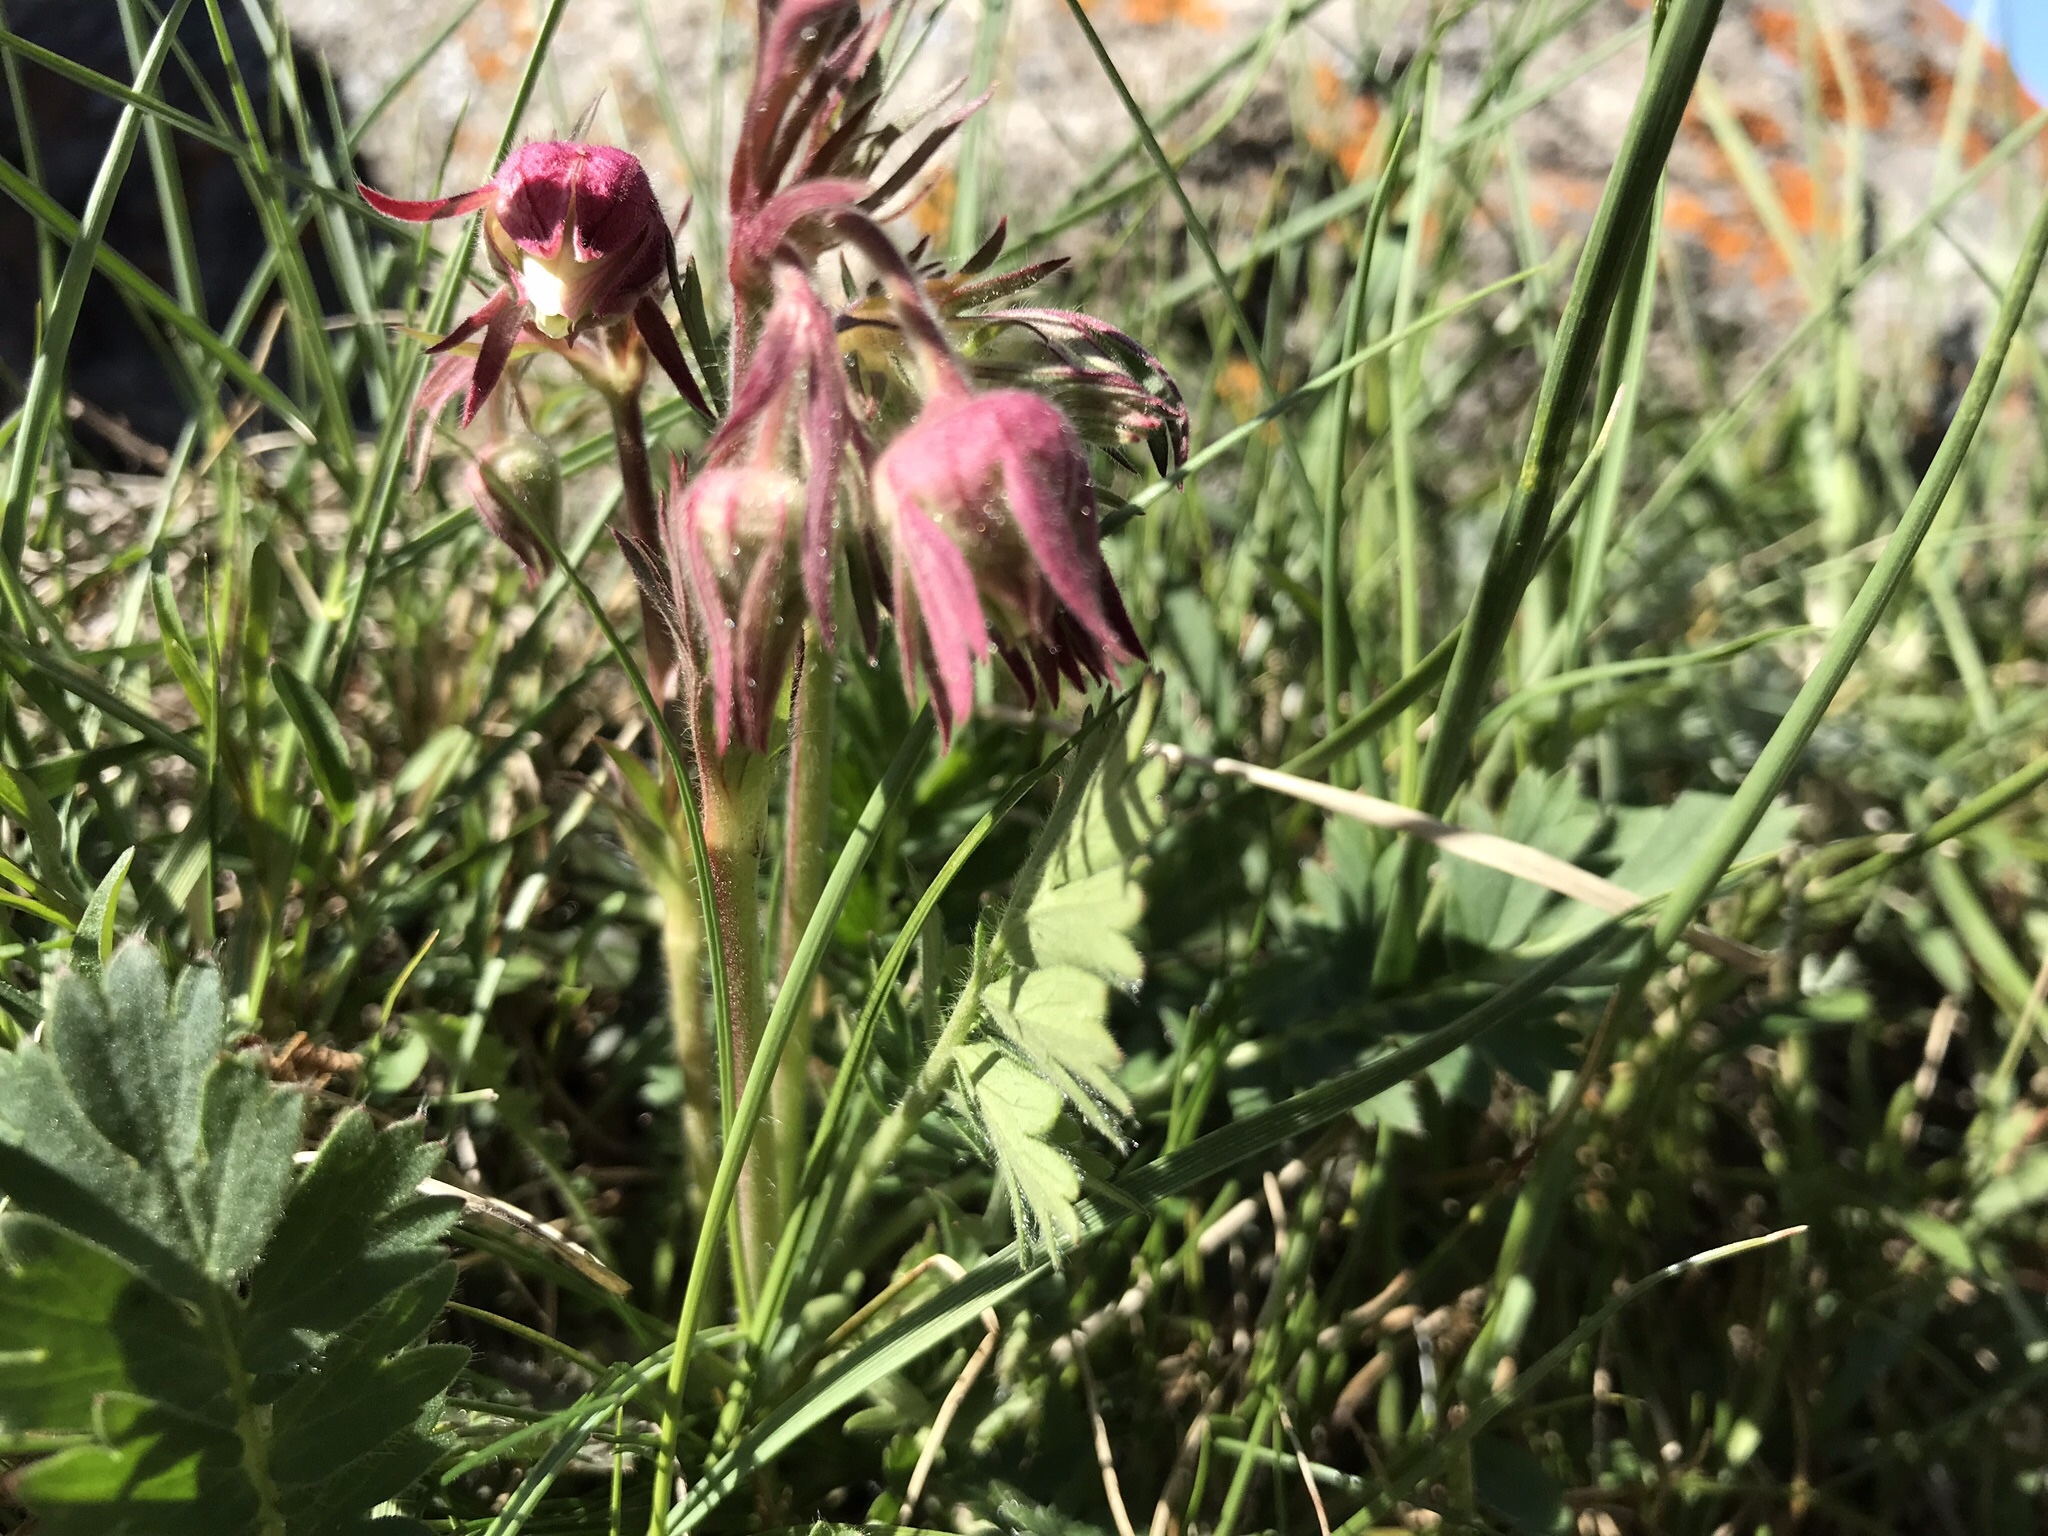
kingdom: Plantae
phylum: Tracheophyta
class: Magnoliopsida
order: Rosales
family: Rosaceae
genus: Geum
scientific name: Geum triflorum
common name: Old man's whiskers
